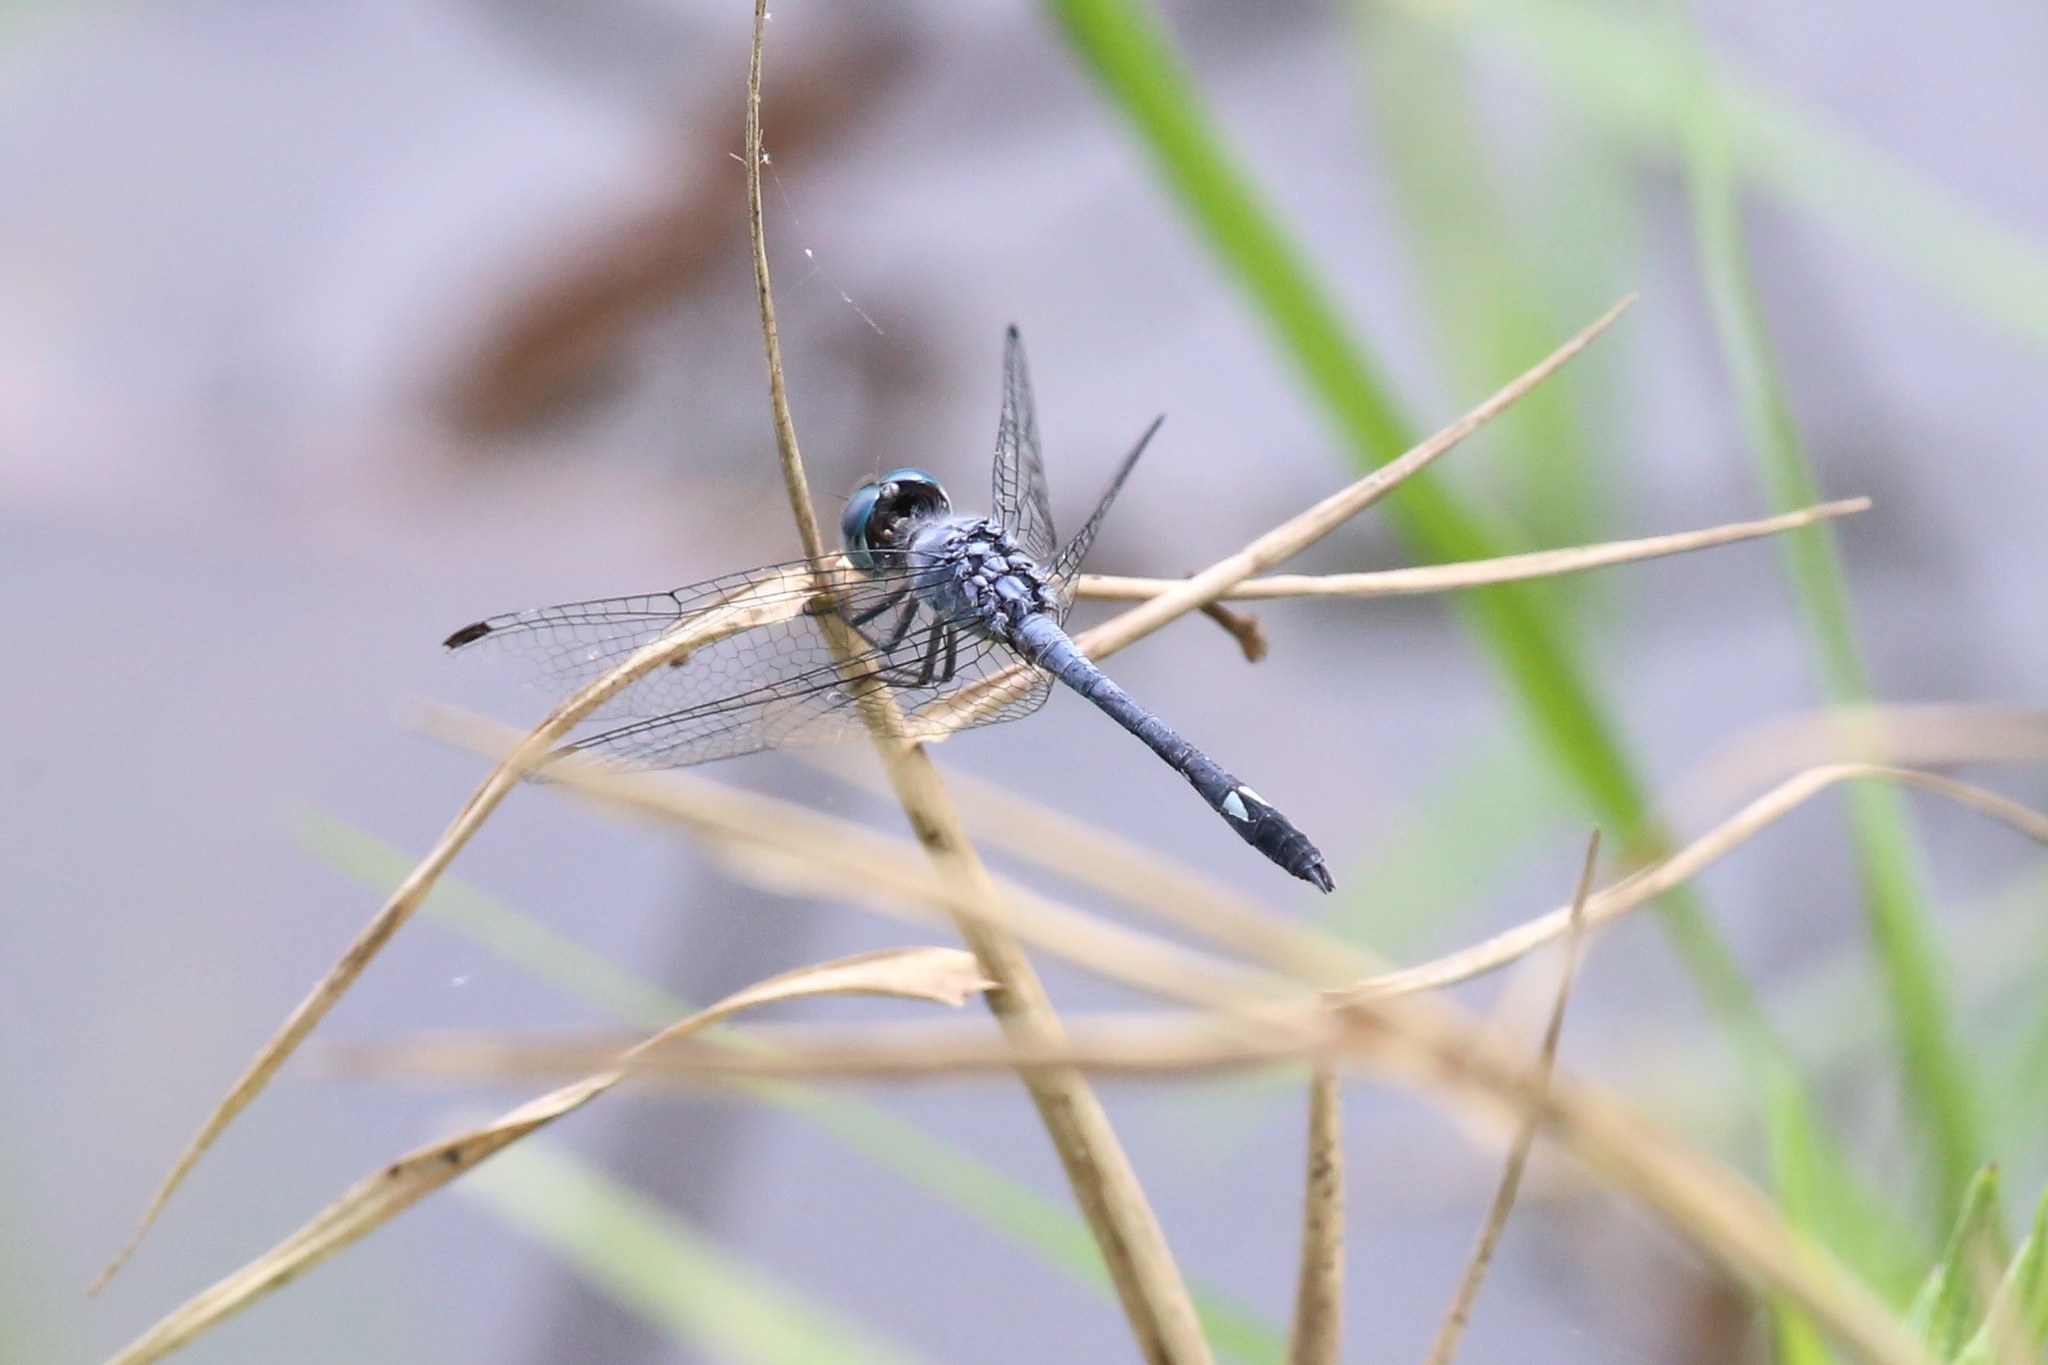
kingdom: Animalia
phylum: Arthropoda
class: Insecta
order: Odonata
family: Libellulidae
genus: Micrathyria
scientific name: Micrathyria aequalis
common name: Spot-tailed dasher
